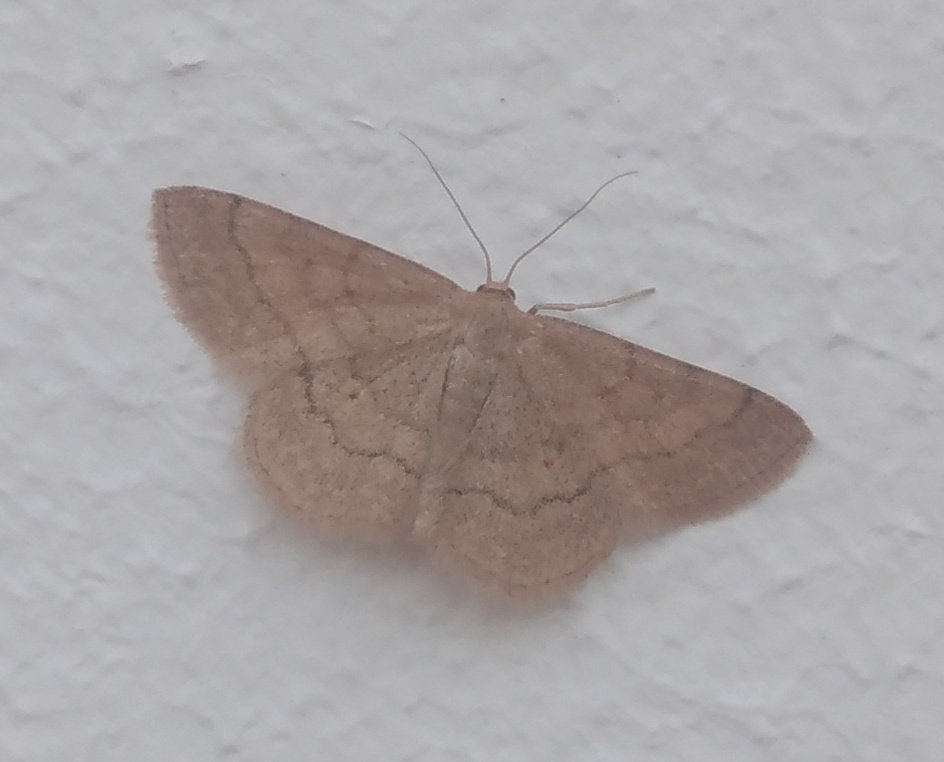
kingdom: Animalia
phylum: Arthropoda
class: Insecta
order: Lepidoptera
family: Geometridae
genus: Scopula
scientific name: Scopula rubiginata
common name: Tawny wave
